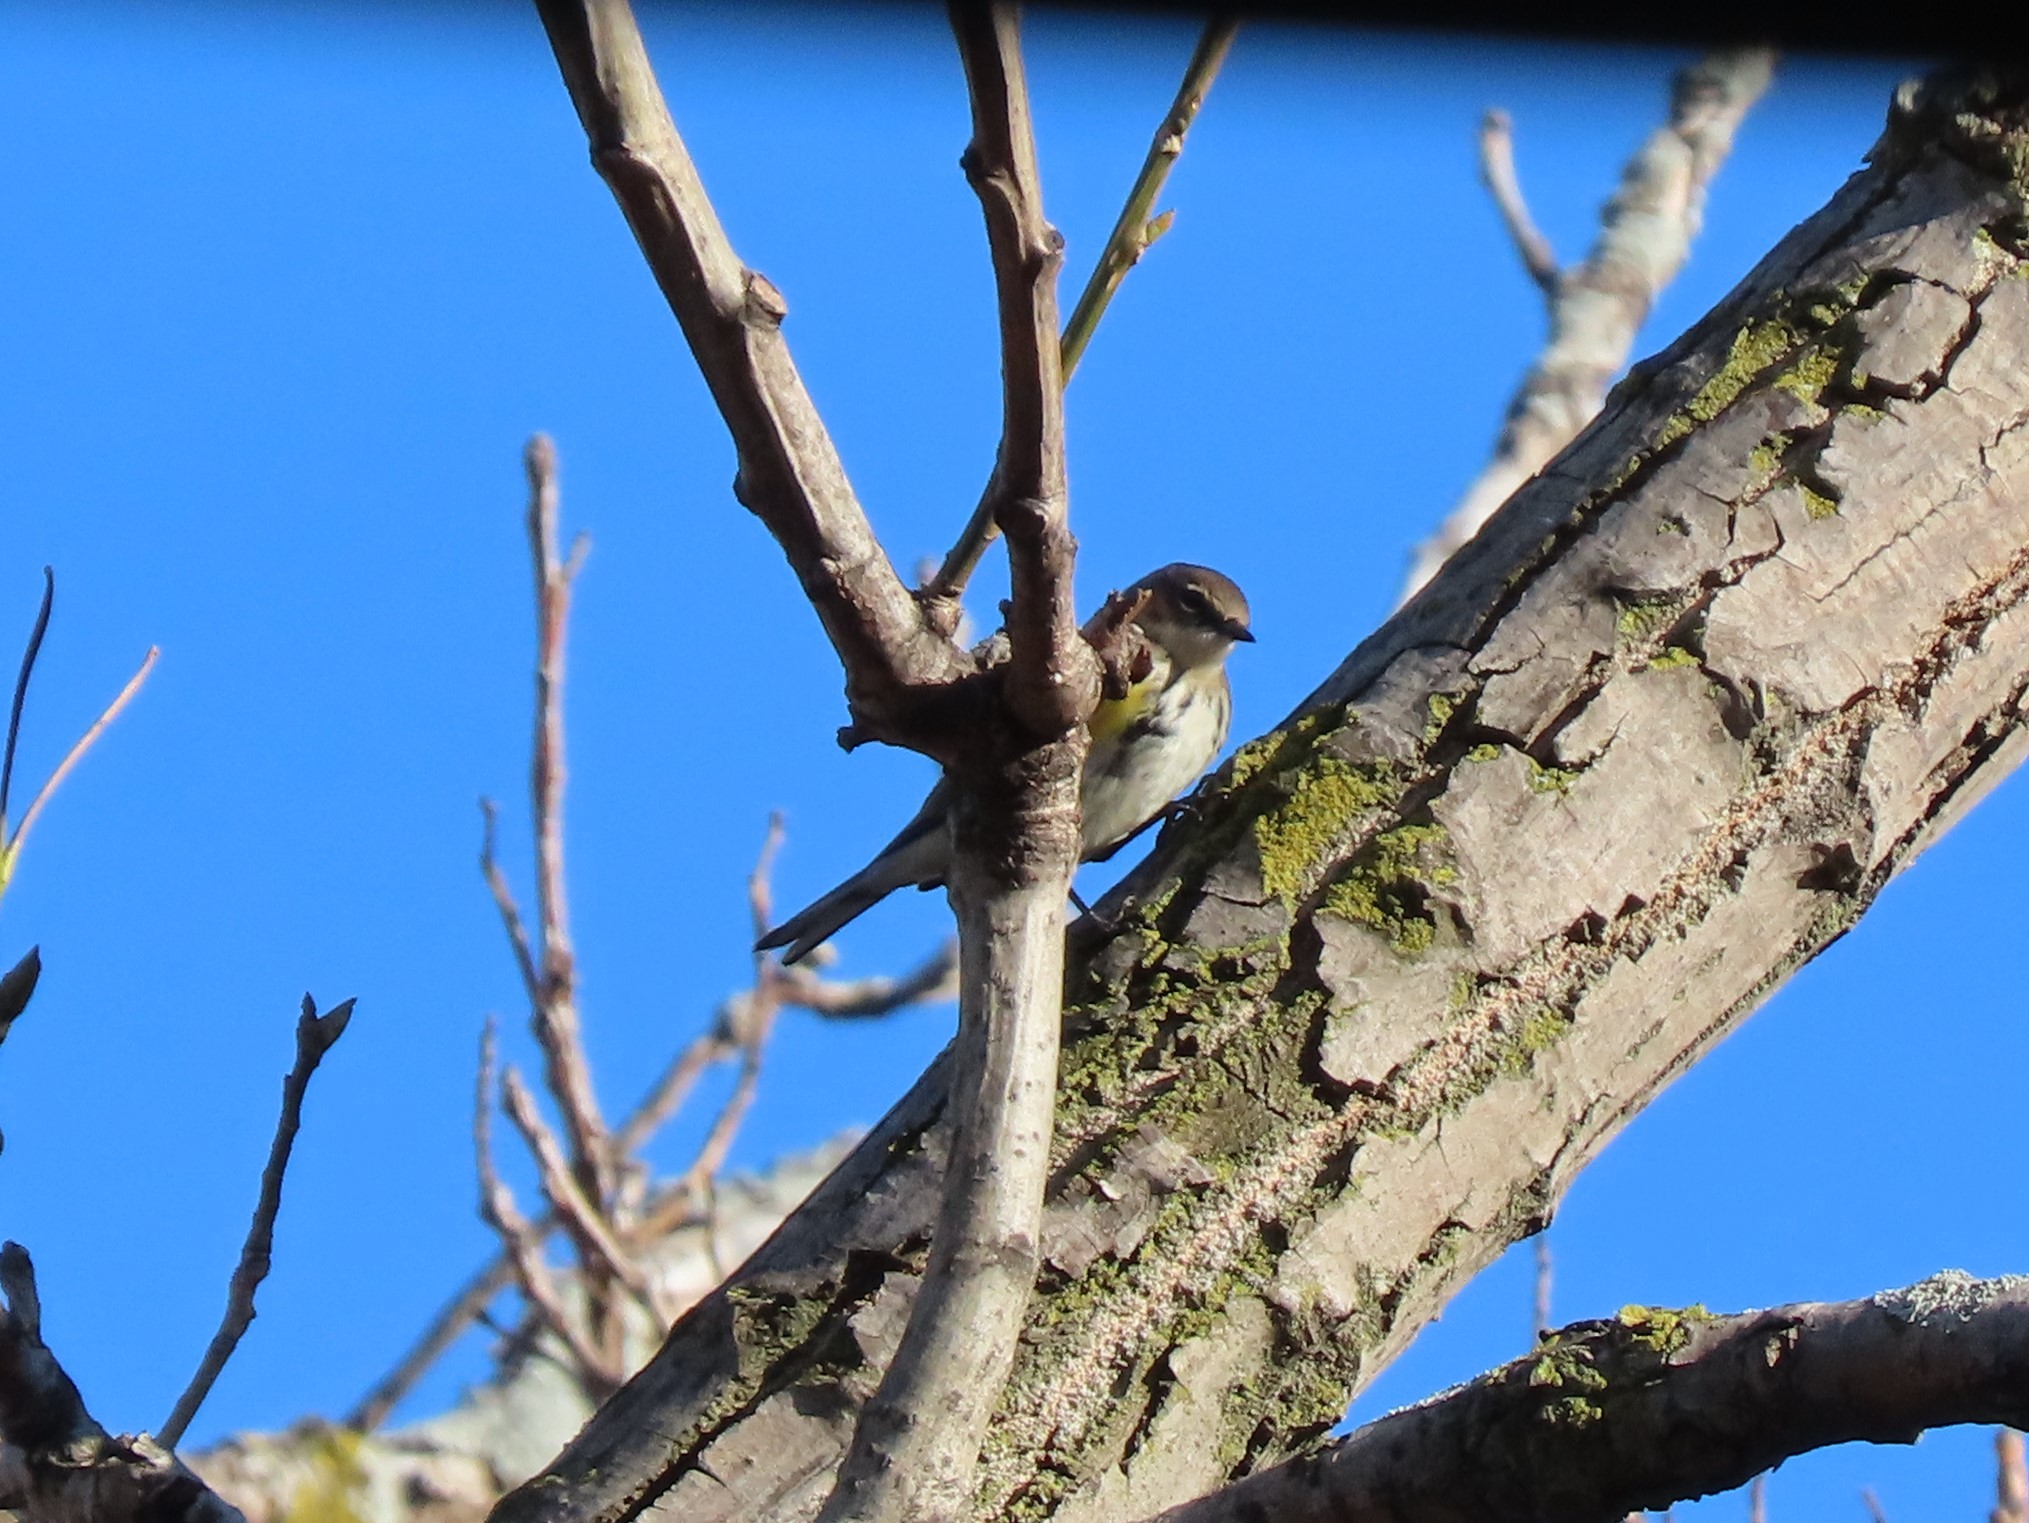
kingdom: Animalia
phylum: Chordata
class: Aves
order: Passeriformes
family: Parulidae
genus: Setophaga
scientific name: Setophaga coronata
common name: Myrtle warbler
